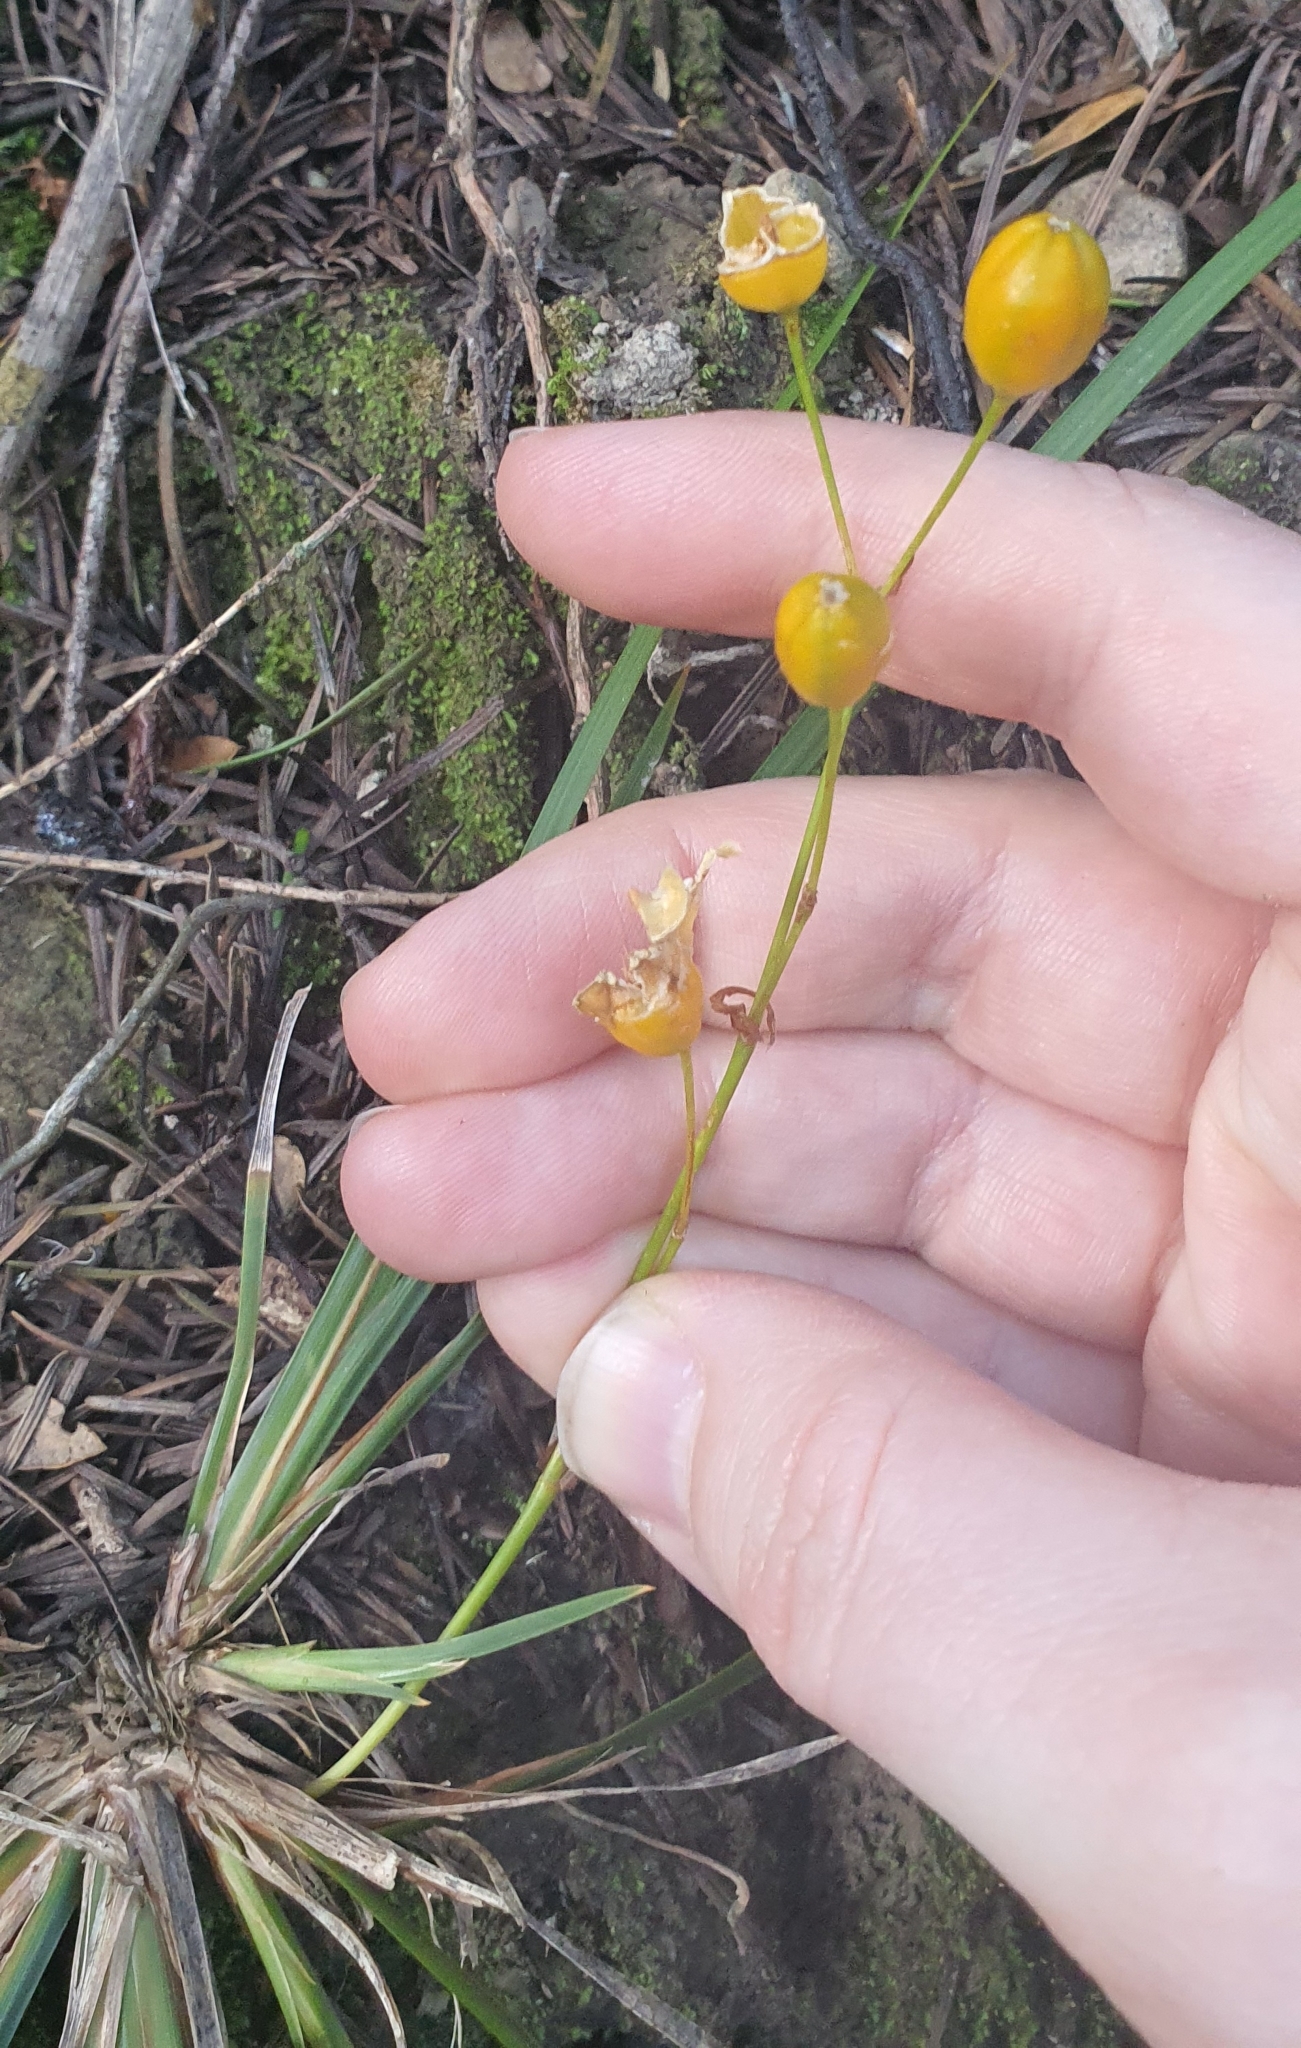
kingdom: Plantae
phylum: Tracheophyta
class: Liliopsida
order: Asparagales
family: Iridaceae
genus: Libertia
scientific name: Libertia ixioides
